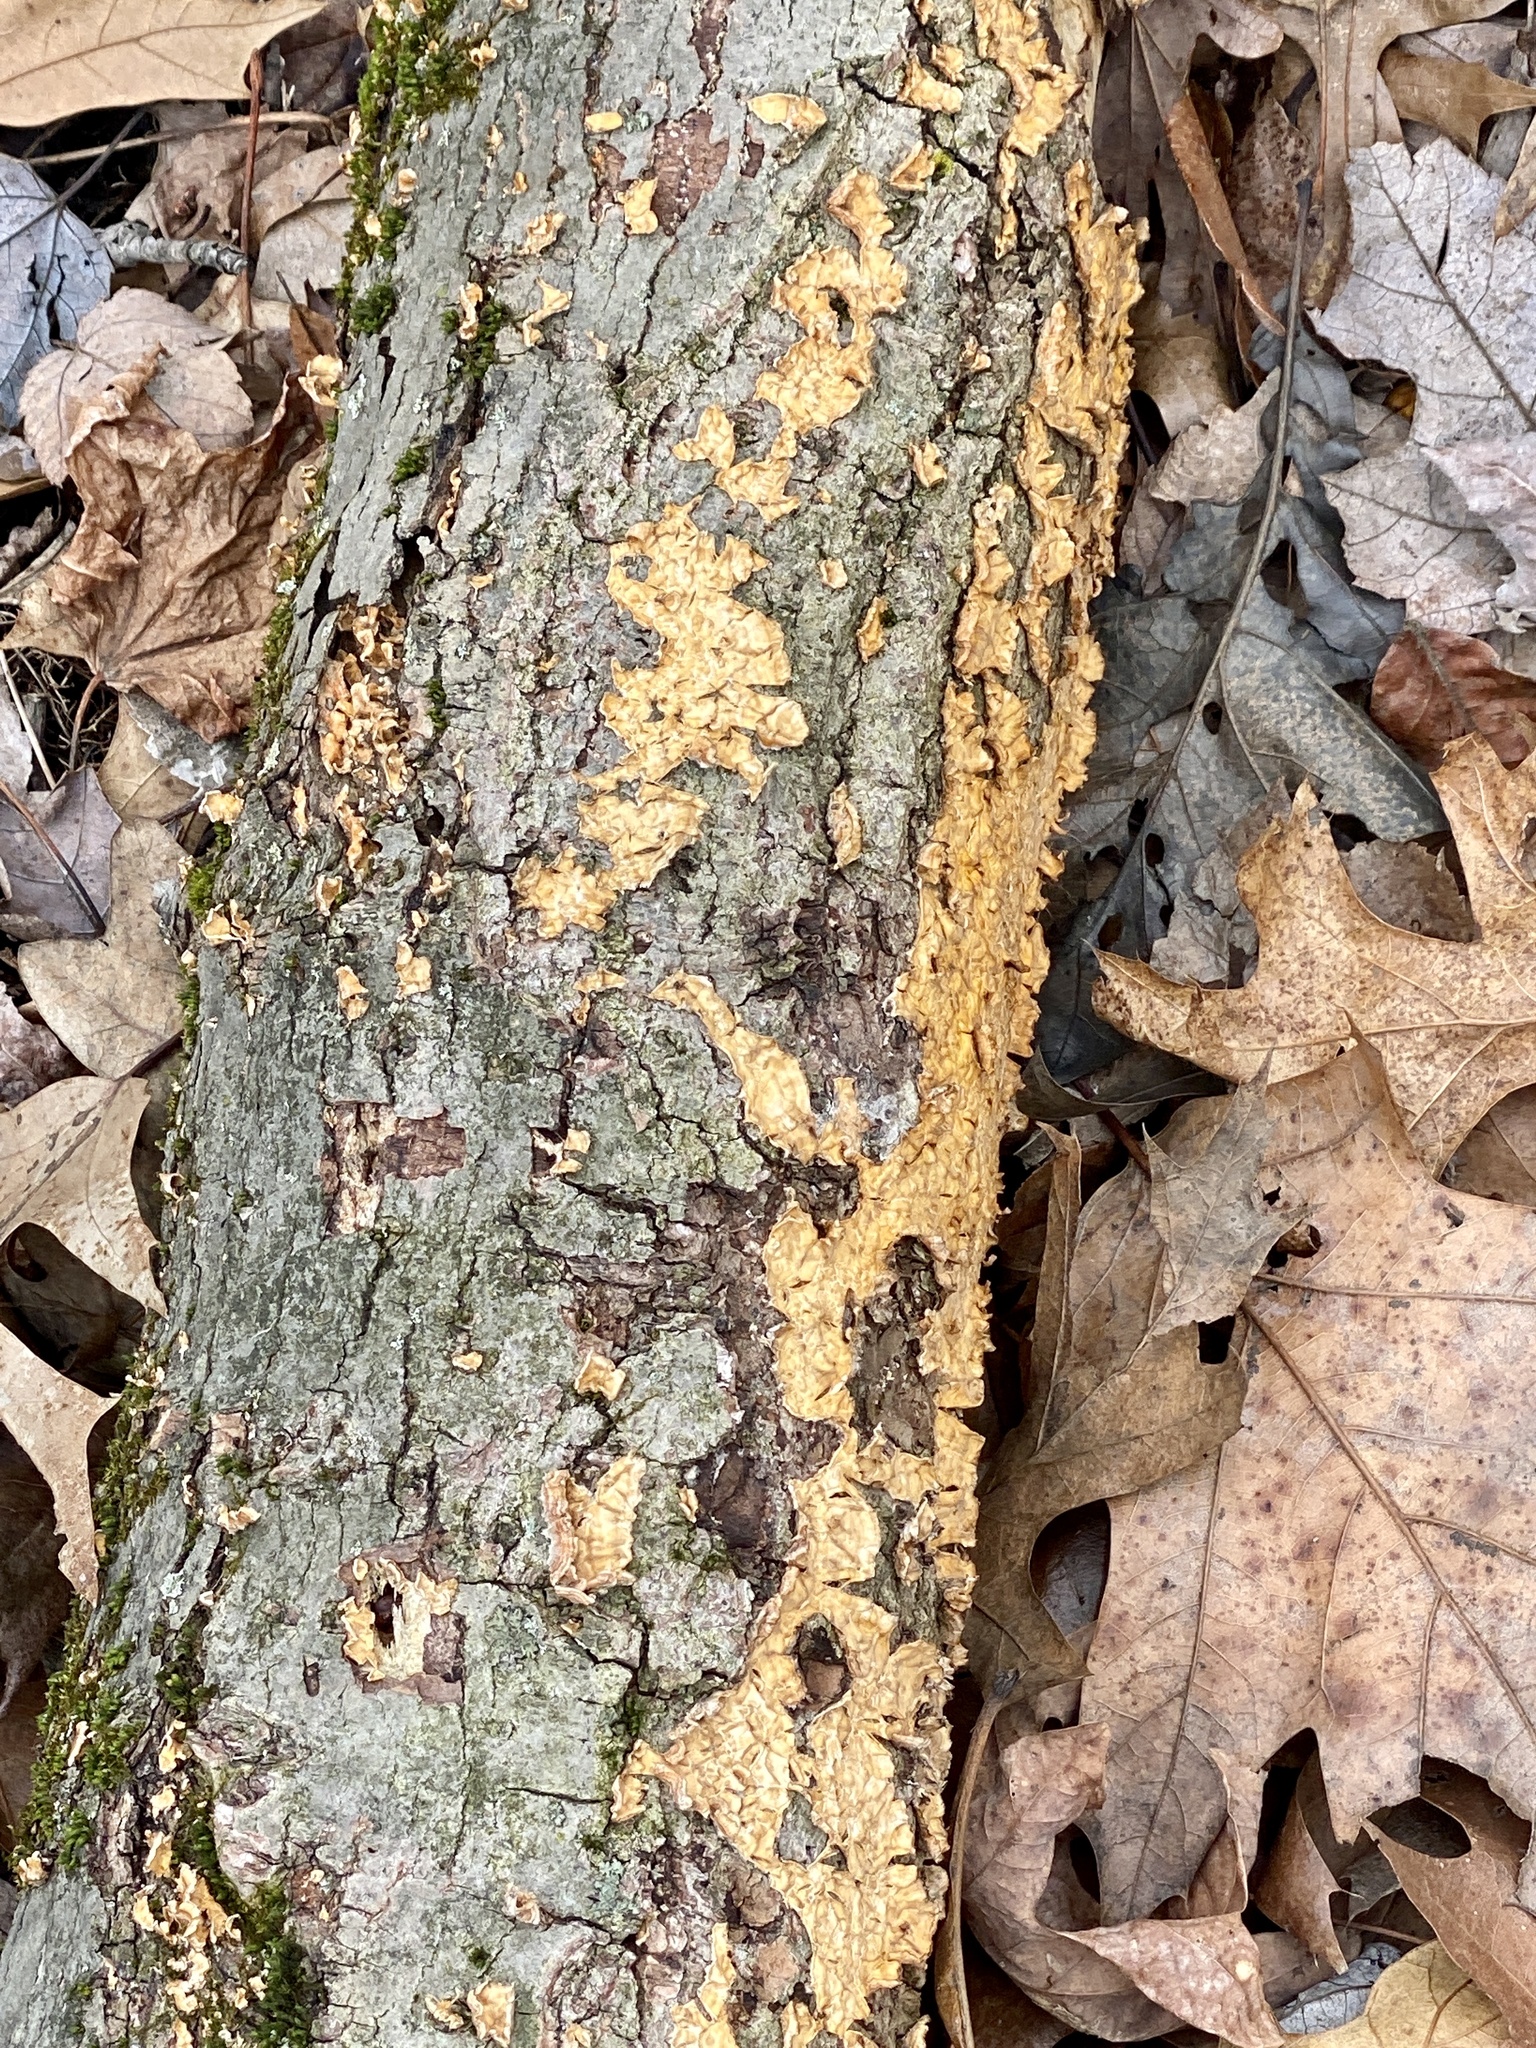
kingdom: Fungi
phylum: Basidiomycota
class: Agaricomycetes
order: Russulales
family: Stereaceae
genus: Stereum
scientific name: Stereum complicatum
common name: Crowded parchment
